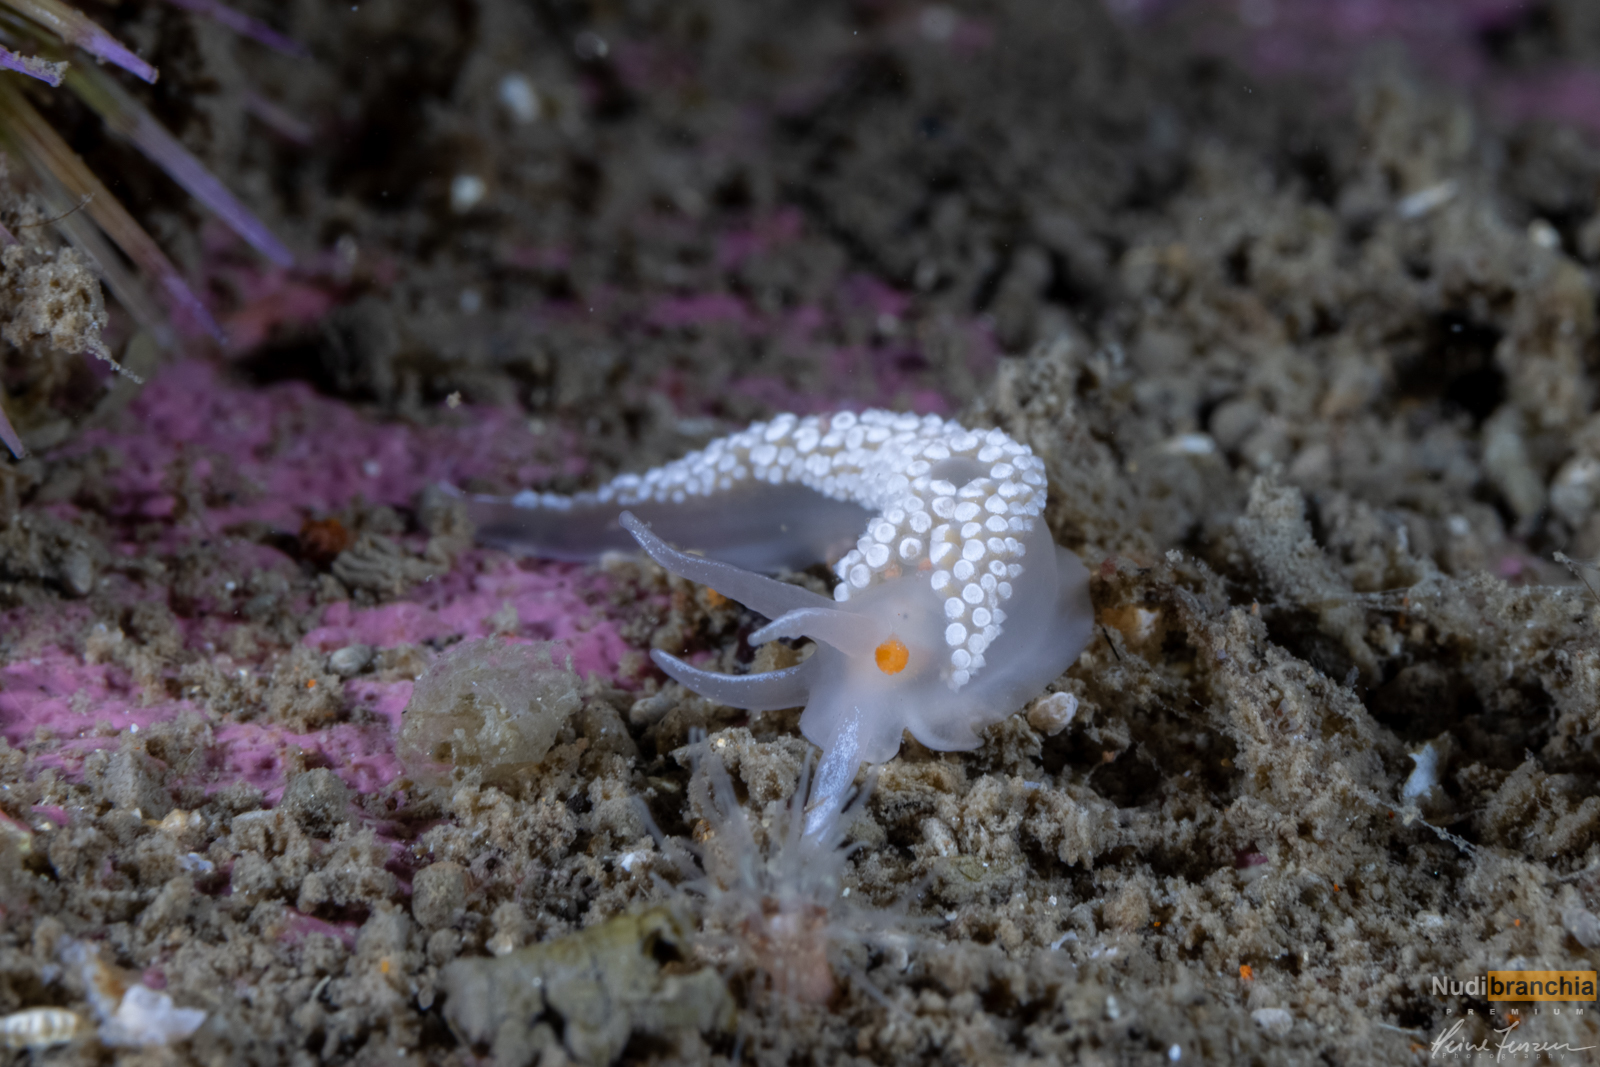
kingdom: Animalia
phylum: Mollusca
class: Gastropoda
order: Nudibranchia
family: Coryphellidae
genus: Coryphella
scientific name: Coryphella verrucosa
